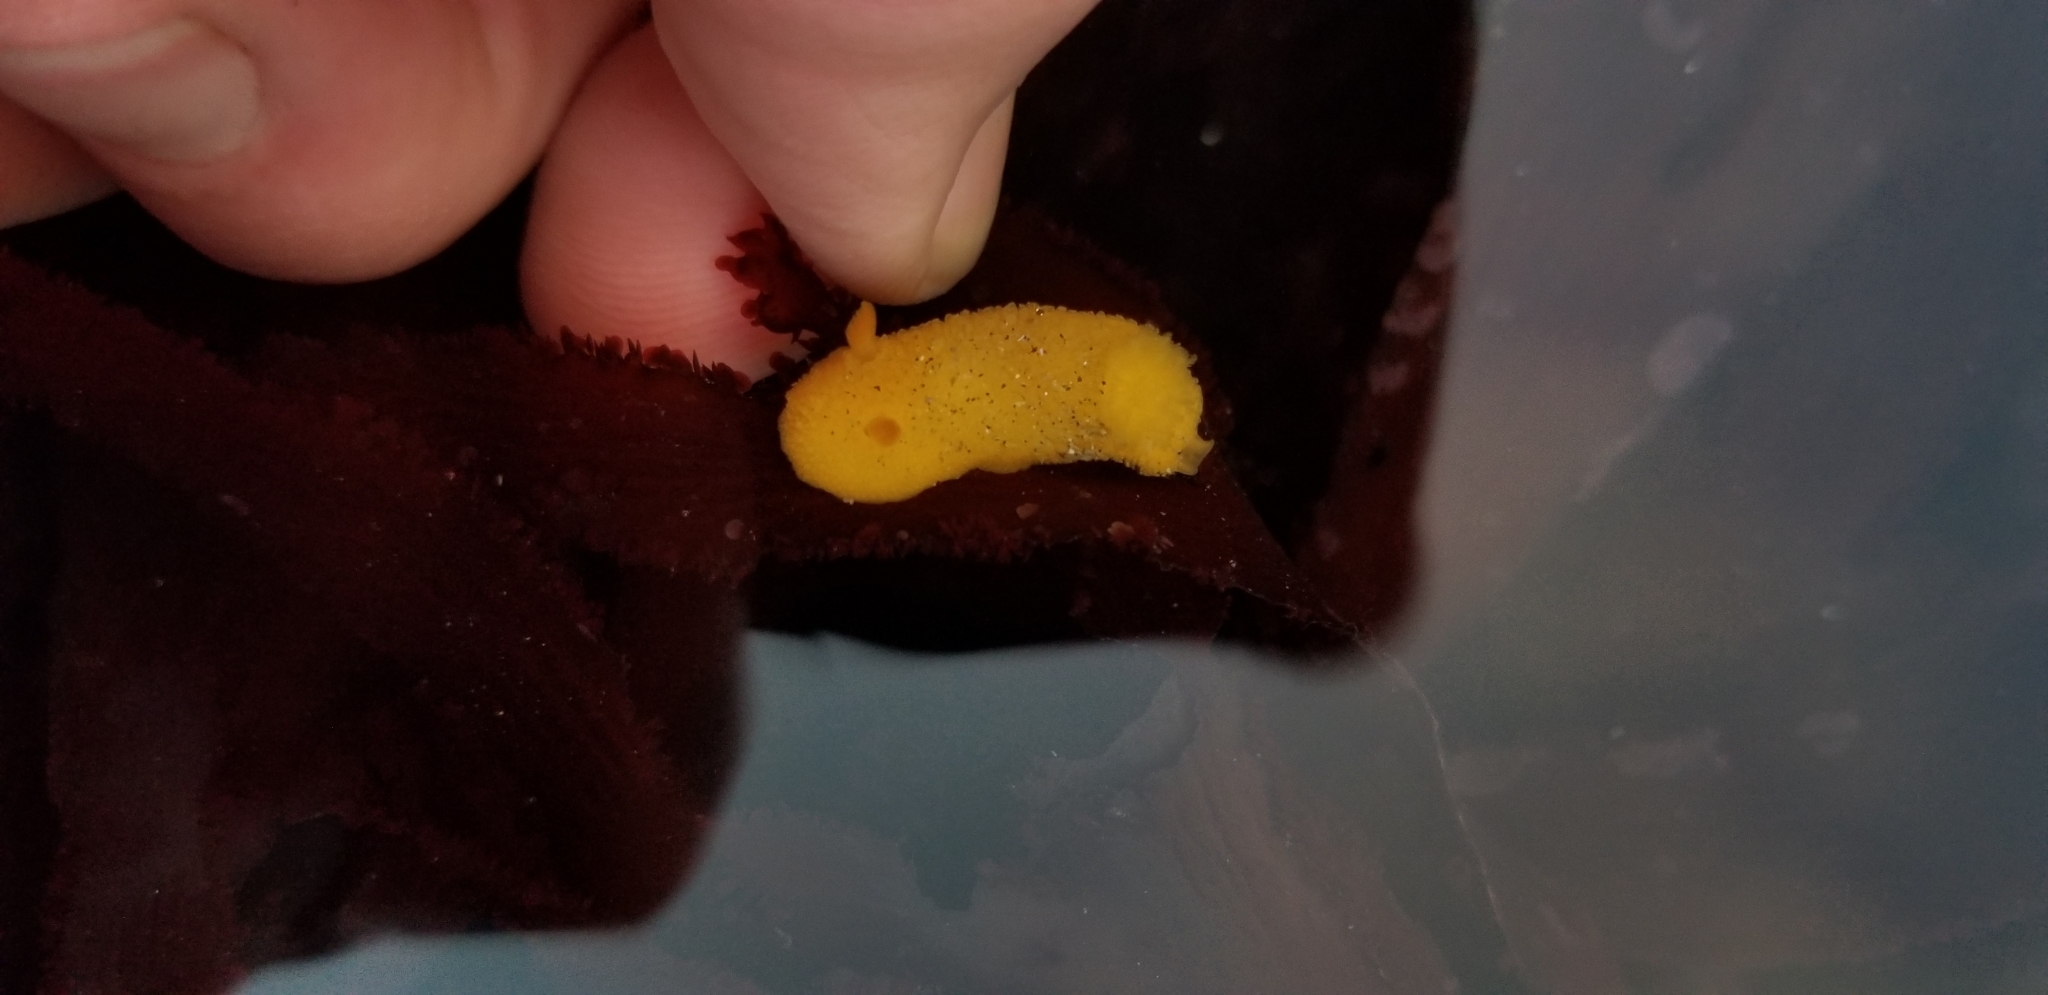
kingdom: Animalia
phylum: Mollusca
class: Gastropoda
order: Nudibranchia
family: Dorididae
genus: Doris
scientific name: Doris montereyensis
